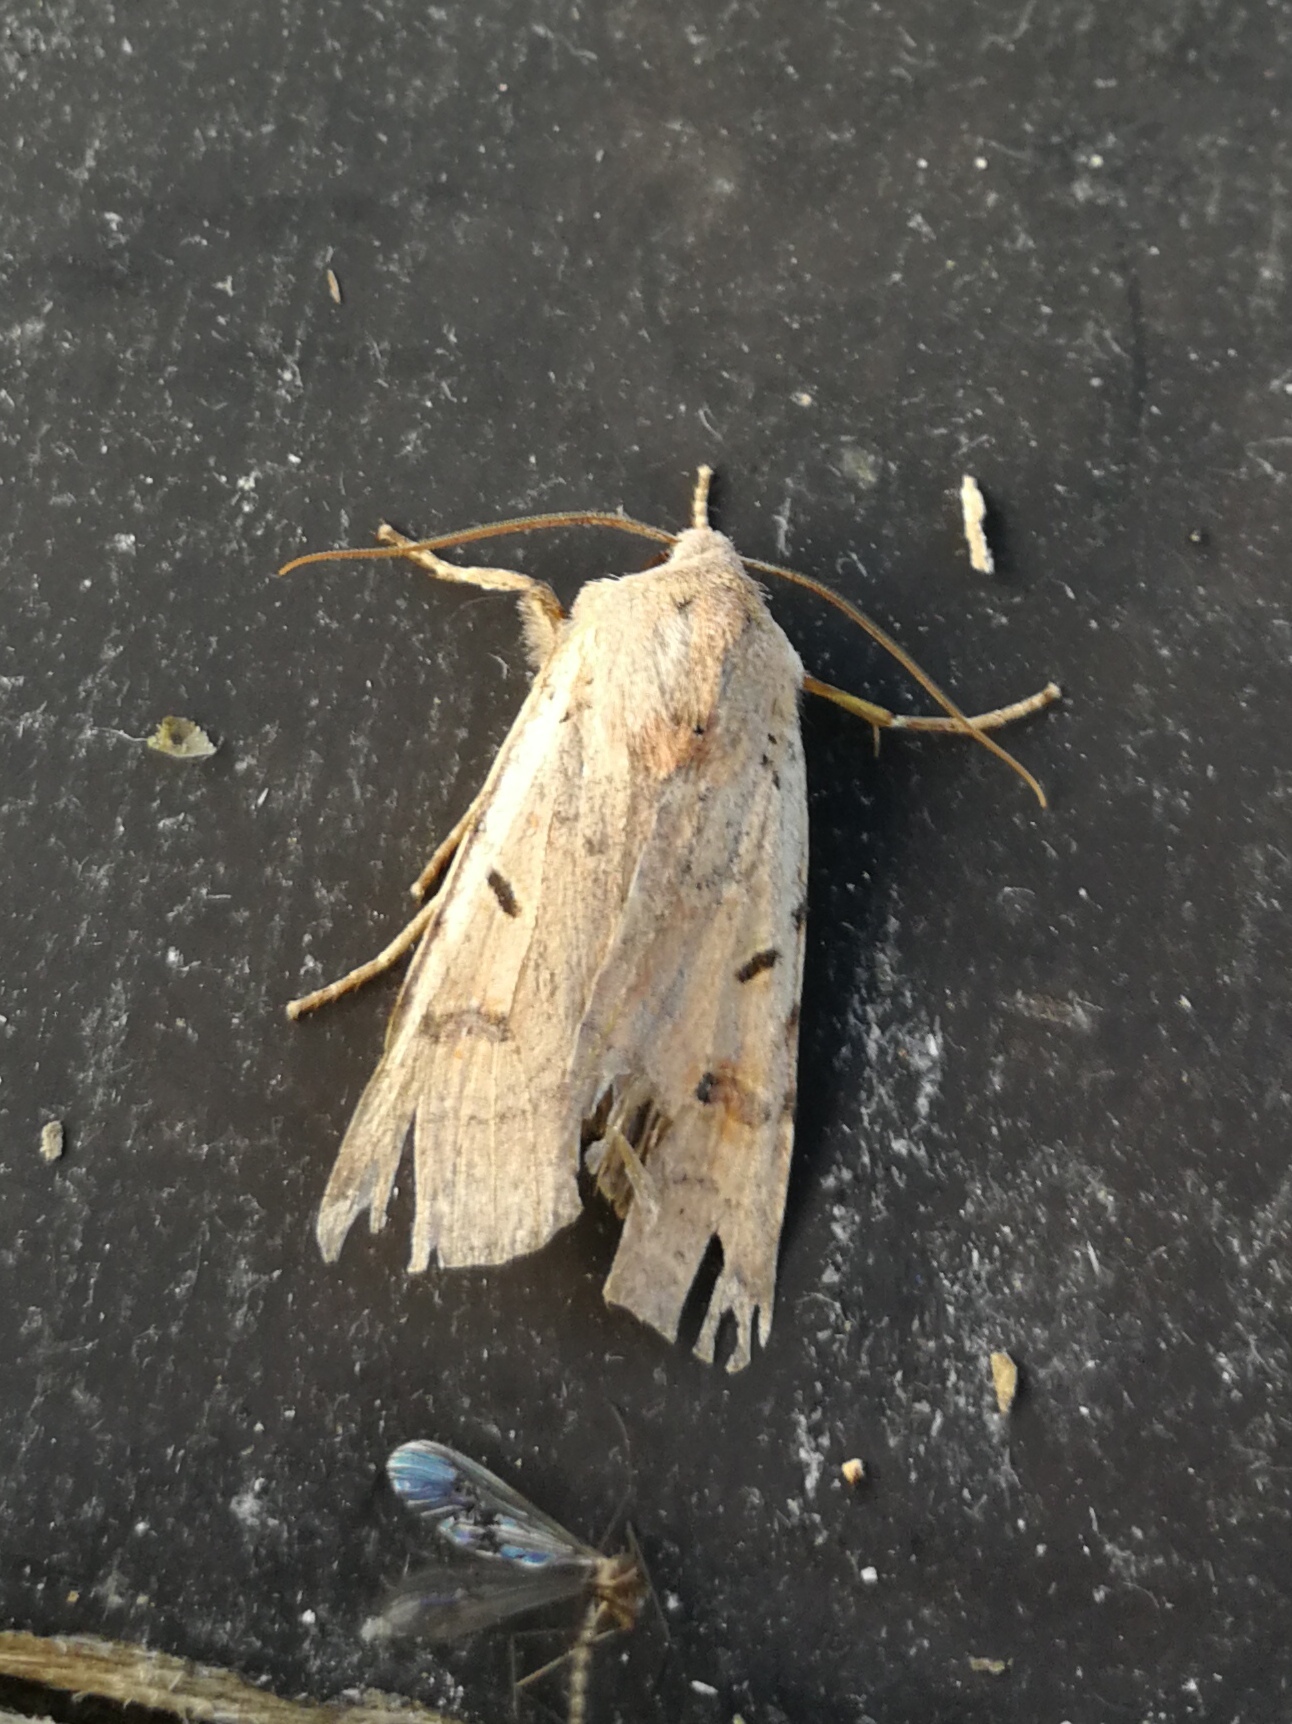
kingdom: Animalia
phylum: Arthropoda
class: Insecta
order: Lepidoptera
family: Noctuidae
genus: Agrochola
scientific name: Agrochola lychnidis
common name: Beaded chestnut
